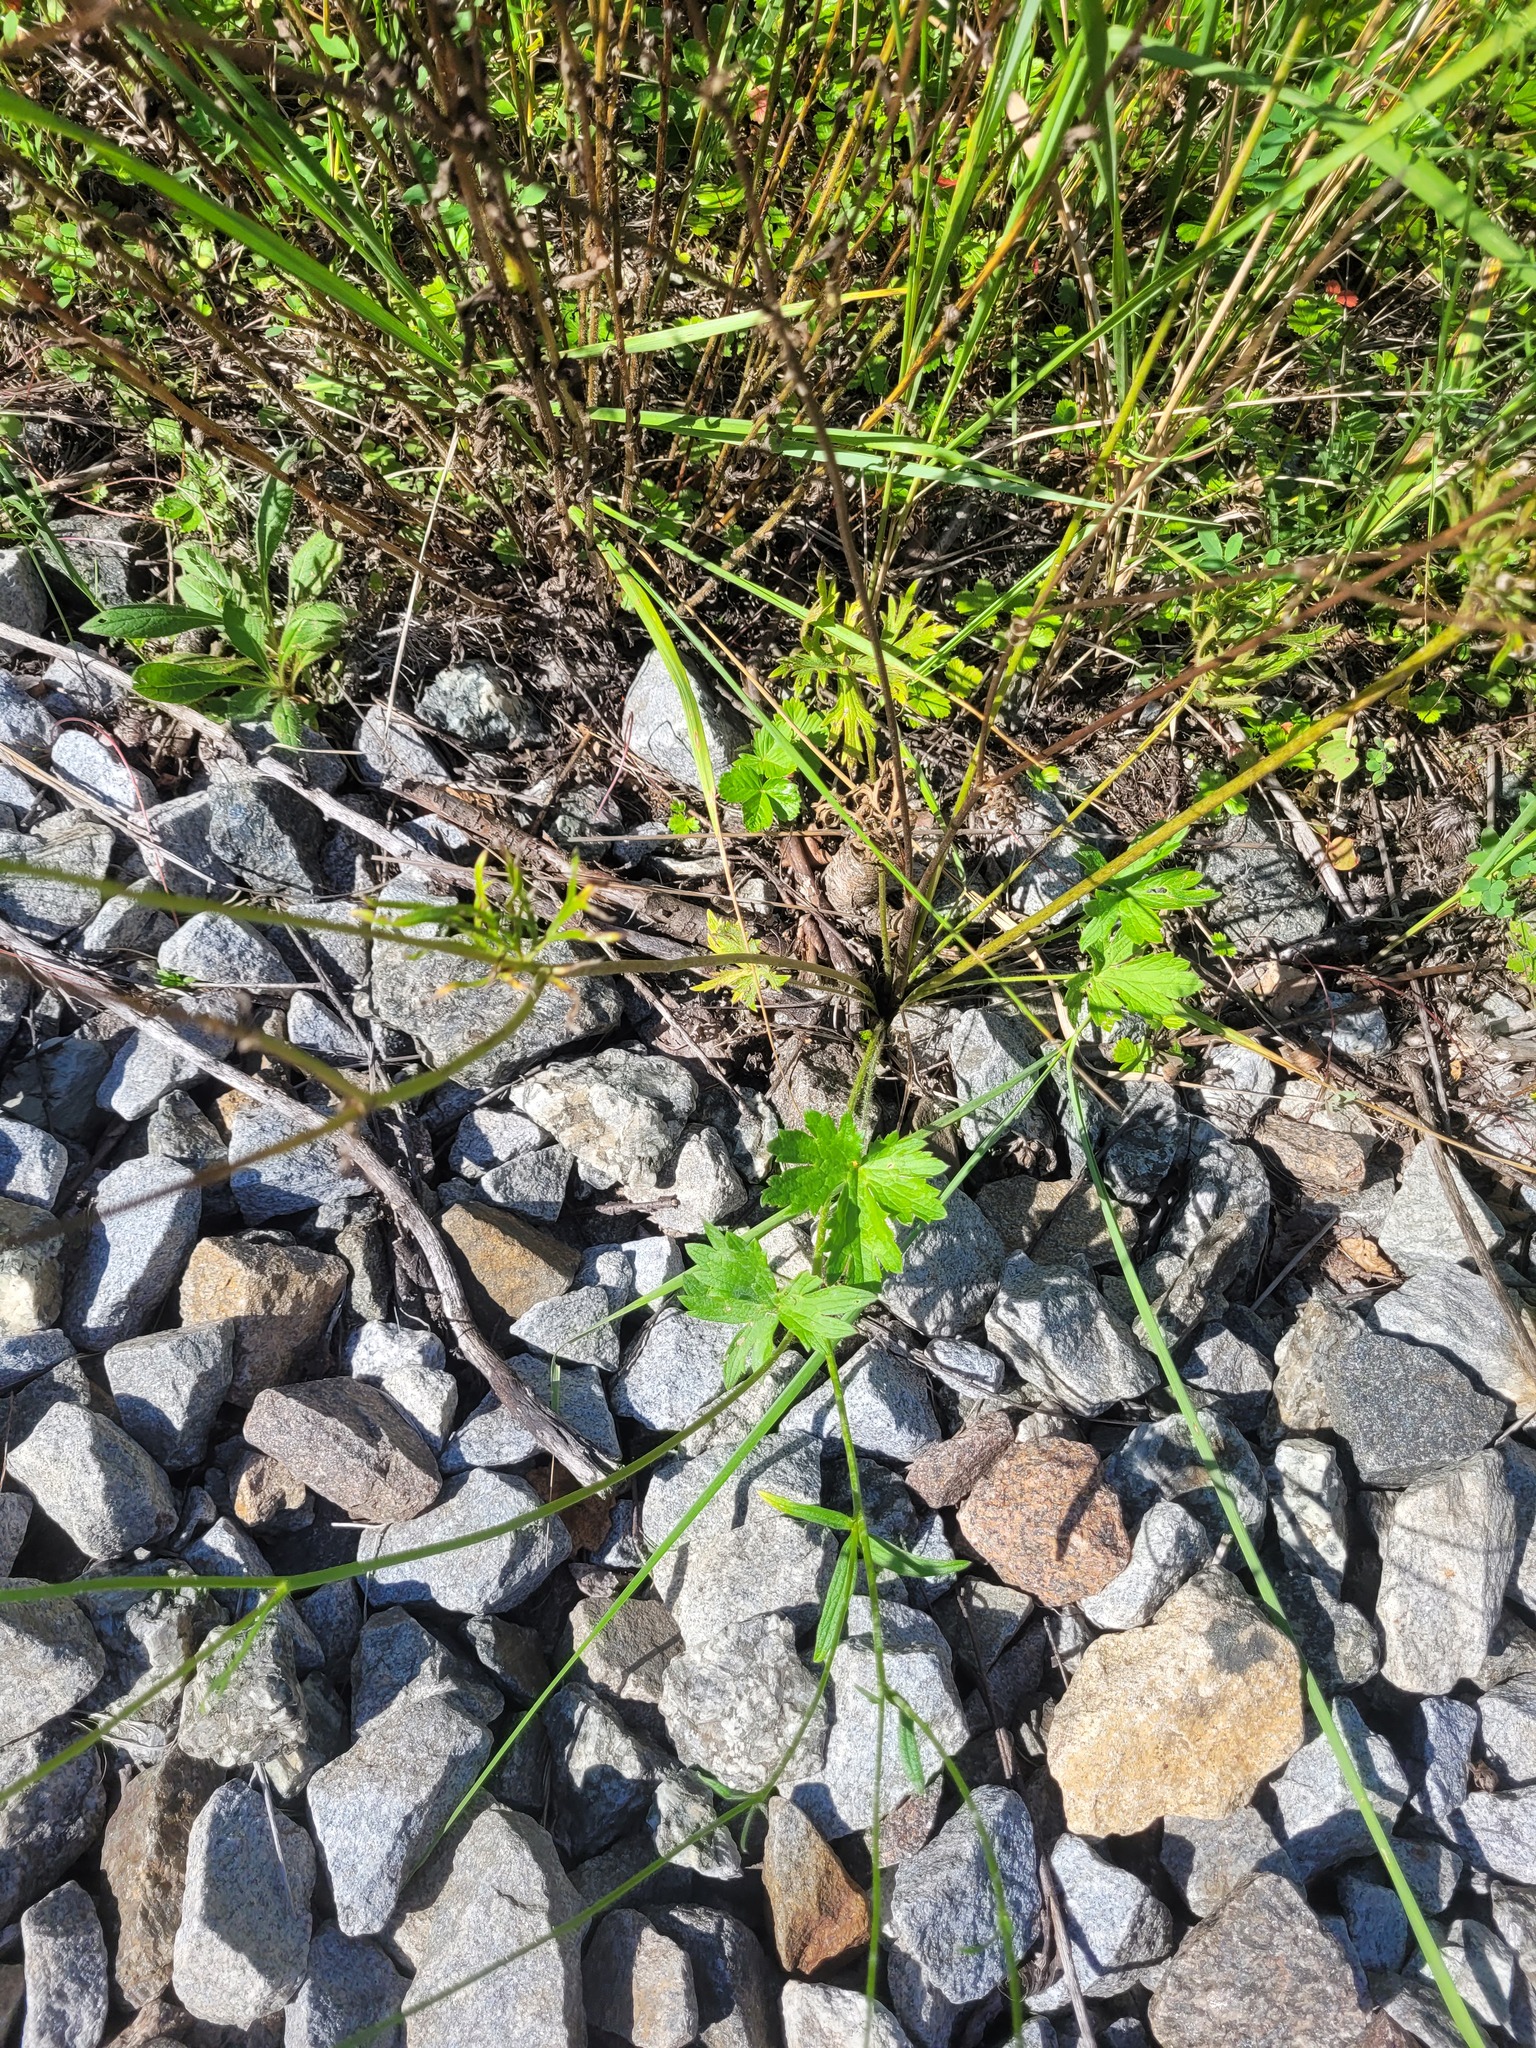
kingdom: Plantae
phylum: Tracheophyta
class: Magnoliopsida
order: Ranunculales
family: Ranunculaceae
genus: Ranunculus
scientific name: Ranunculus polyanthemos
